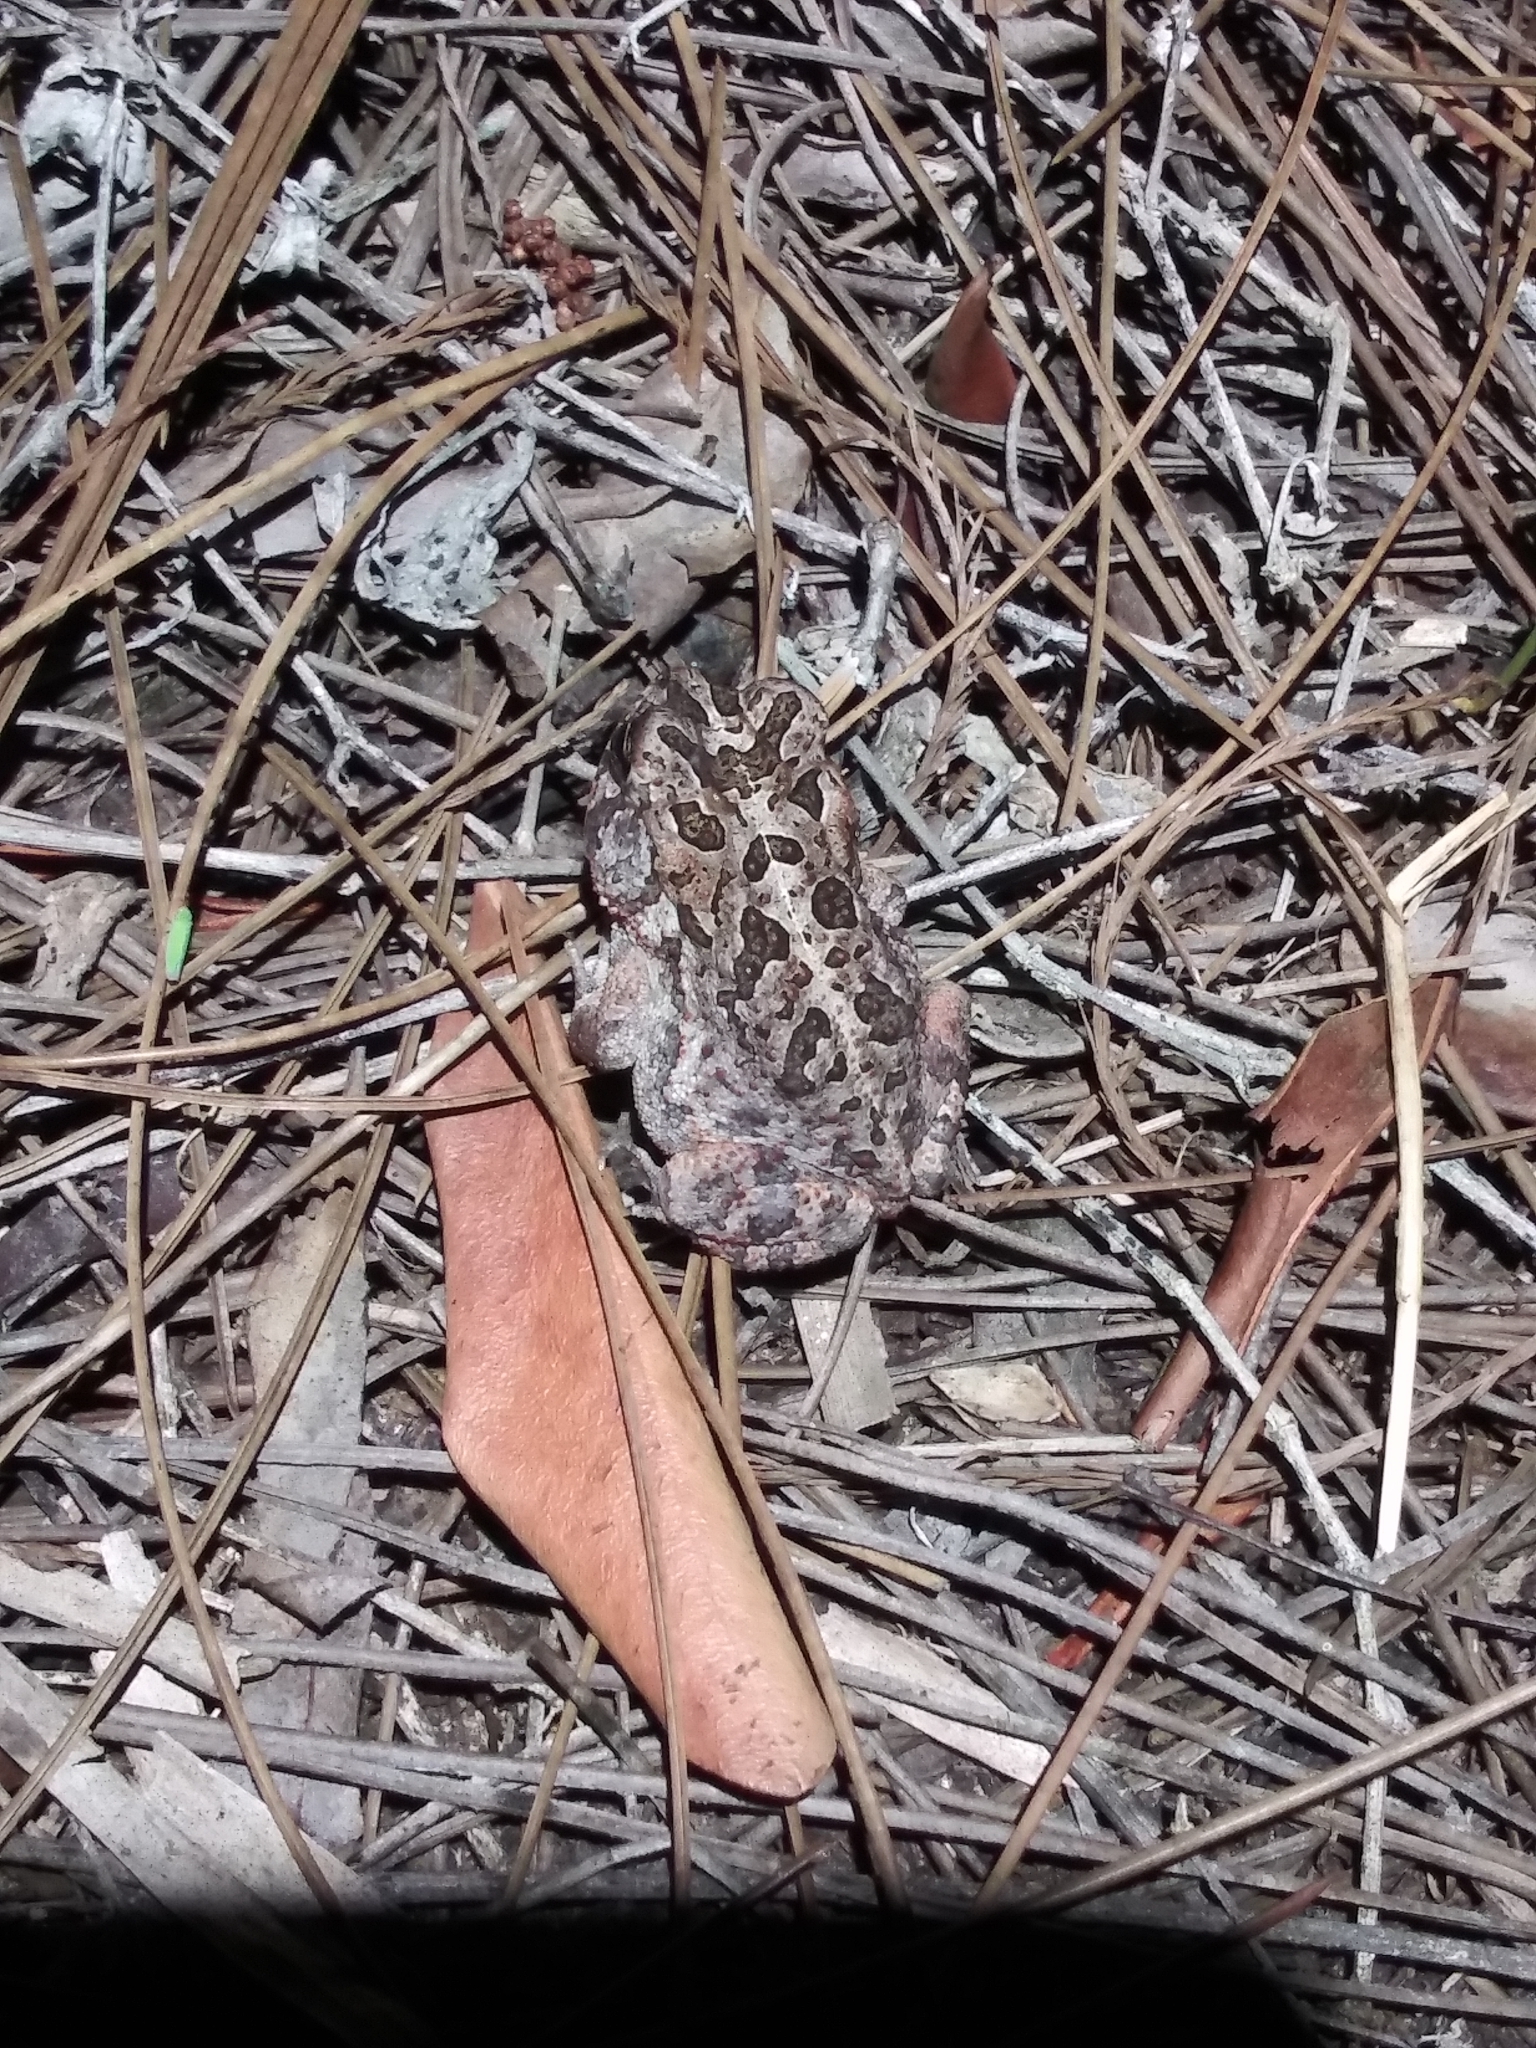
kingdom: Animalia
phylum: Chordata
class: Amphibia
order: Anura
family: Bufonidae
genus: Anaxyrus
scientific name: Anaxyrus terrestris
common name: Southern toad
